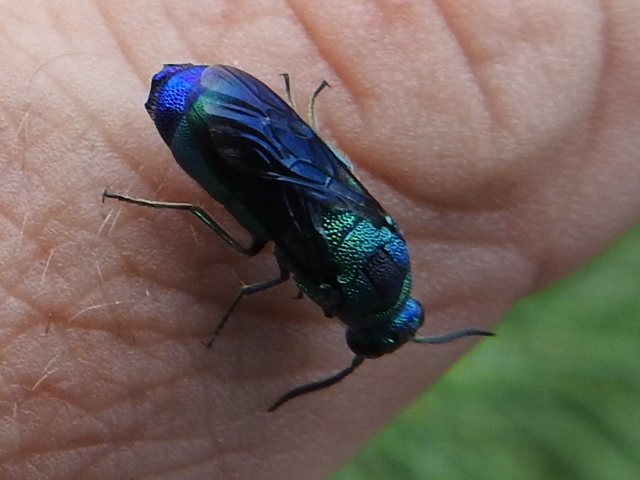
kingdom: Animalia
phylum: Arthropoda
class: Insecta
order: Hymenoptera
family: Chrysididae
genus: Chrysis
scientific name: Chrysis angolensis
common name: Cuckoo wasp
